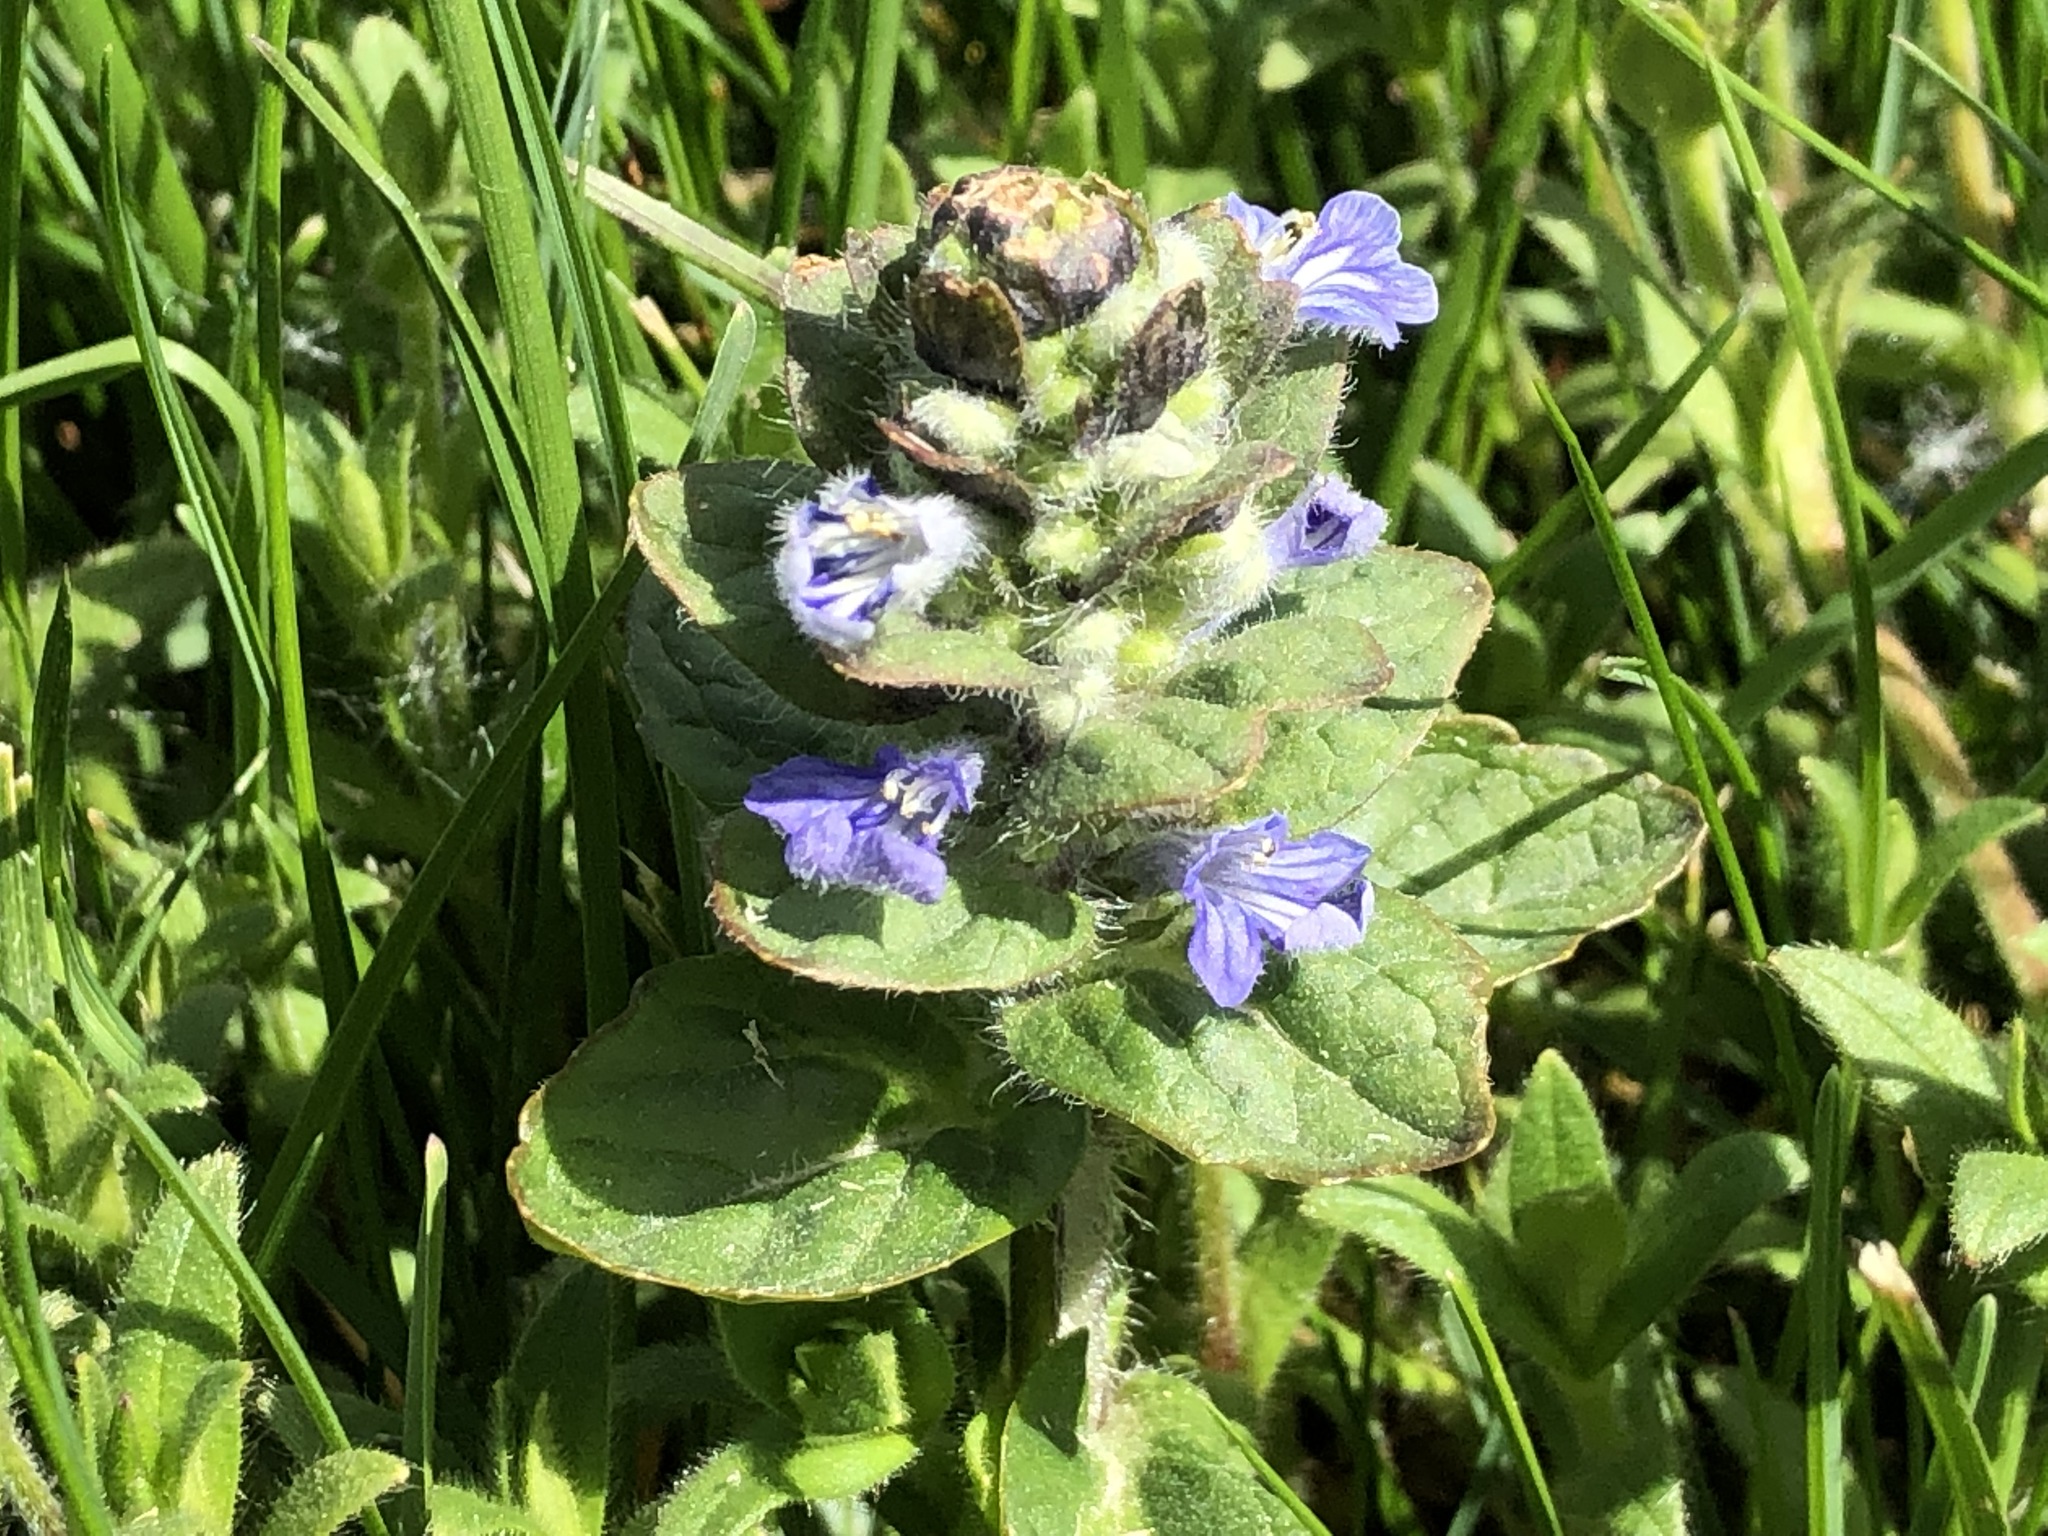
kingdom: Plantae
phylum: Tracheophyta
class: Magnoliopsida
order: Lamiales
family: Lamiaceae
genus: Ajuga
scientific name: Ajuga reptans
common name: Bugle
